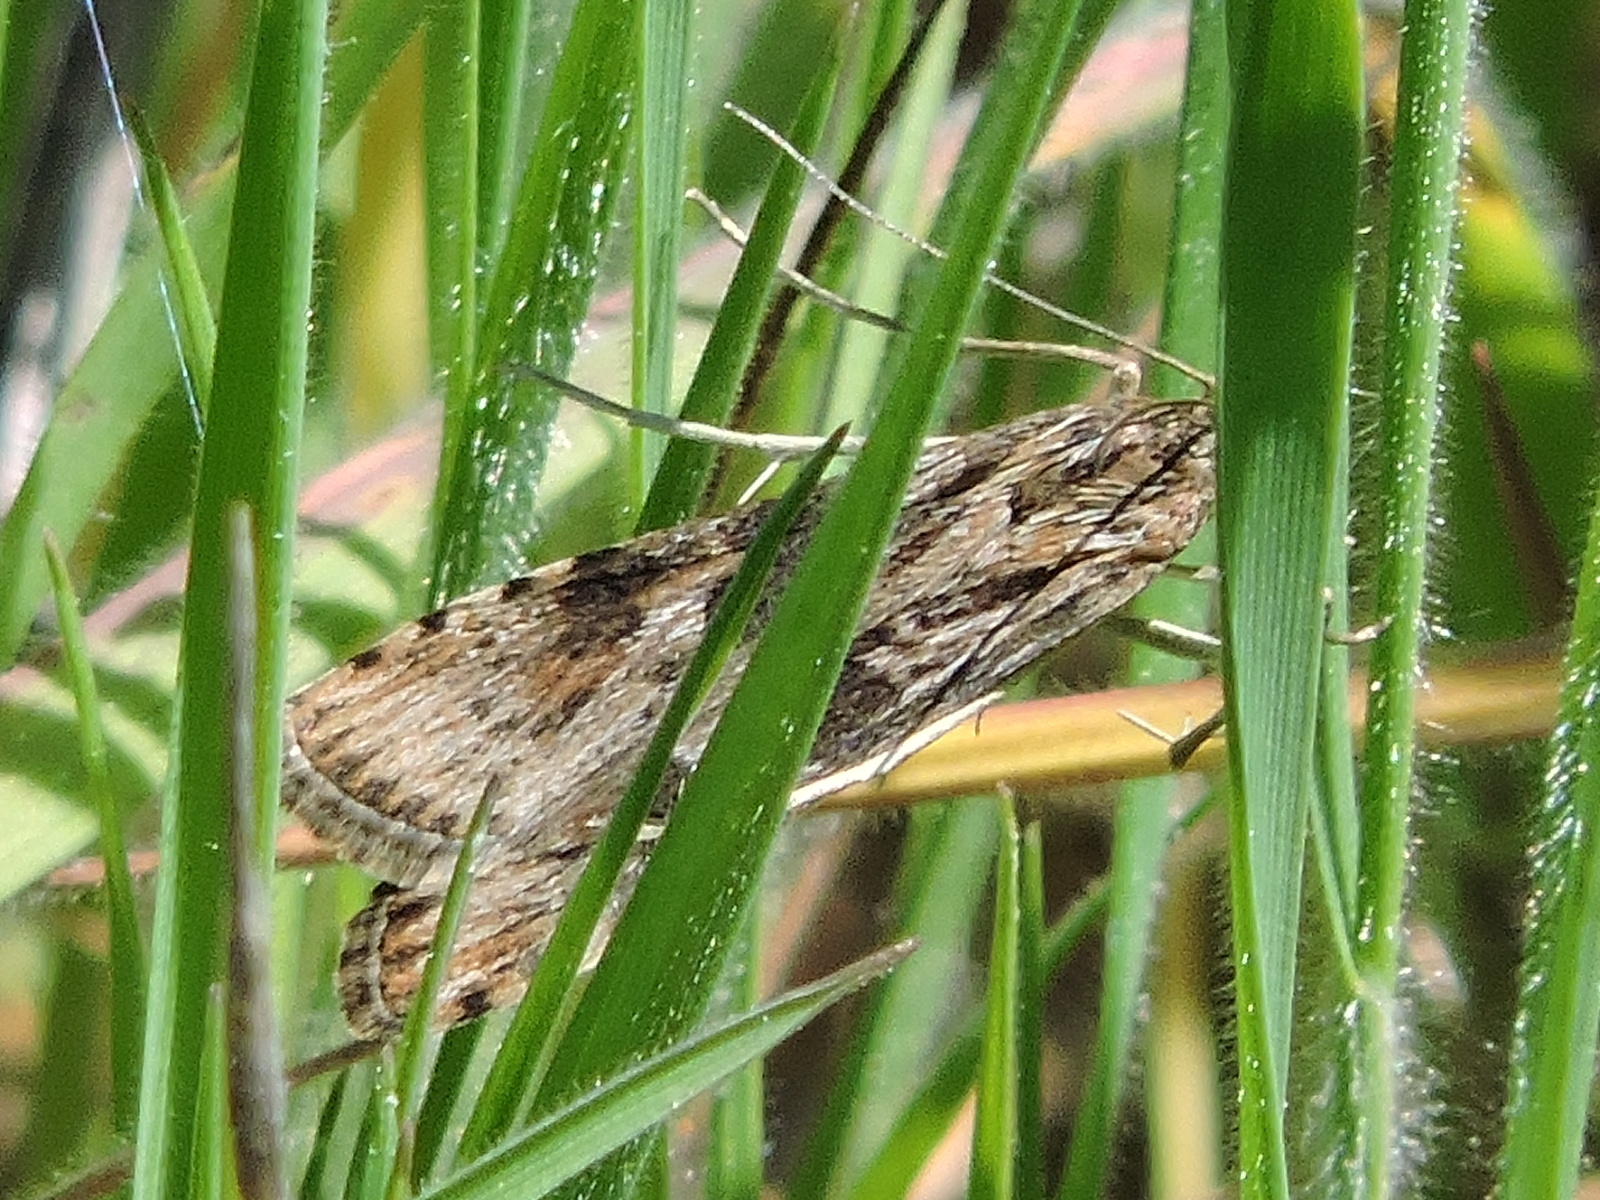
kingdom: Animalia
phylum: Arthropoda
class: Insecta
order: Lepidoptera
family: Crambidae
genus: Nomophila
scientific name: Nomophila nearctica
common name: American rush veneer
